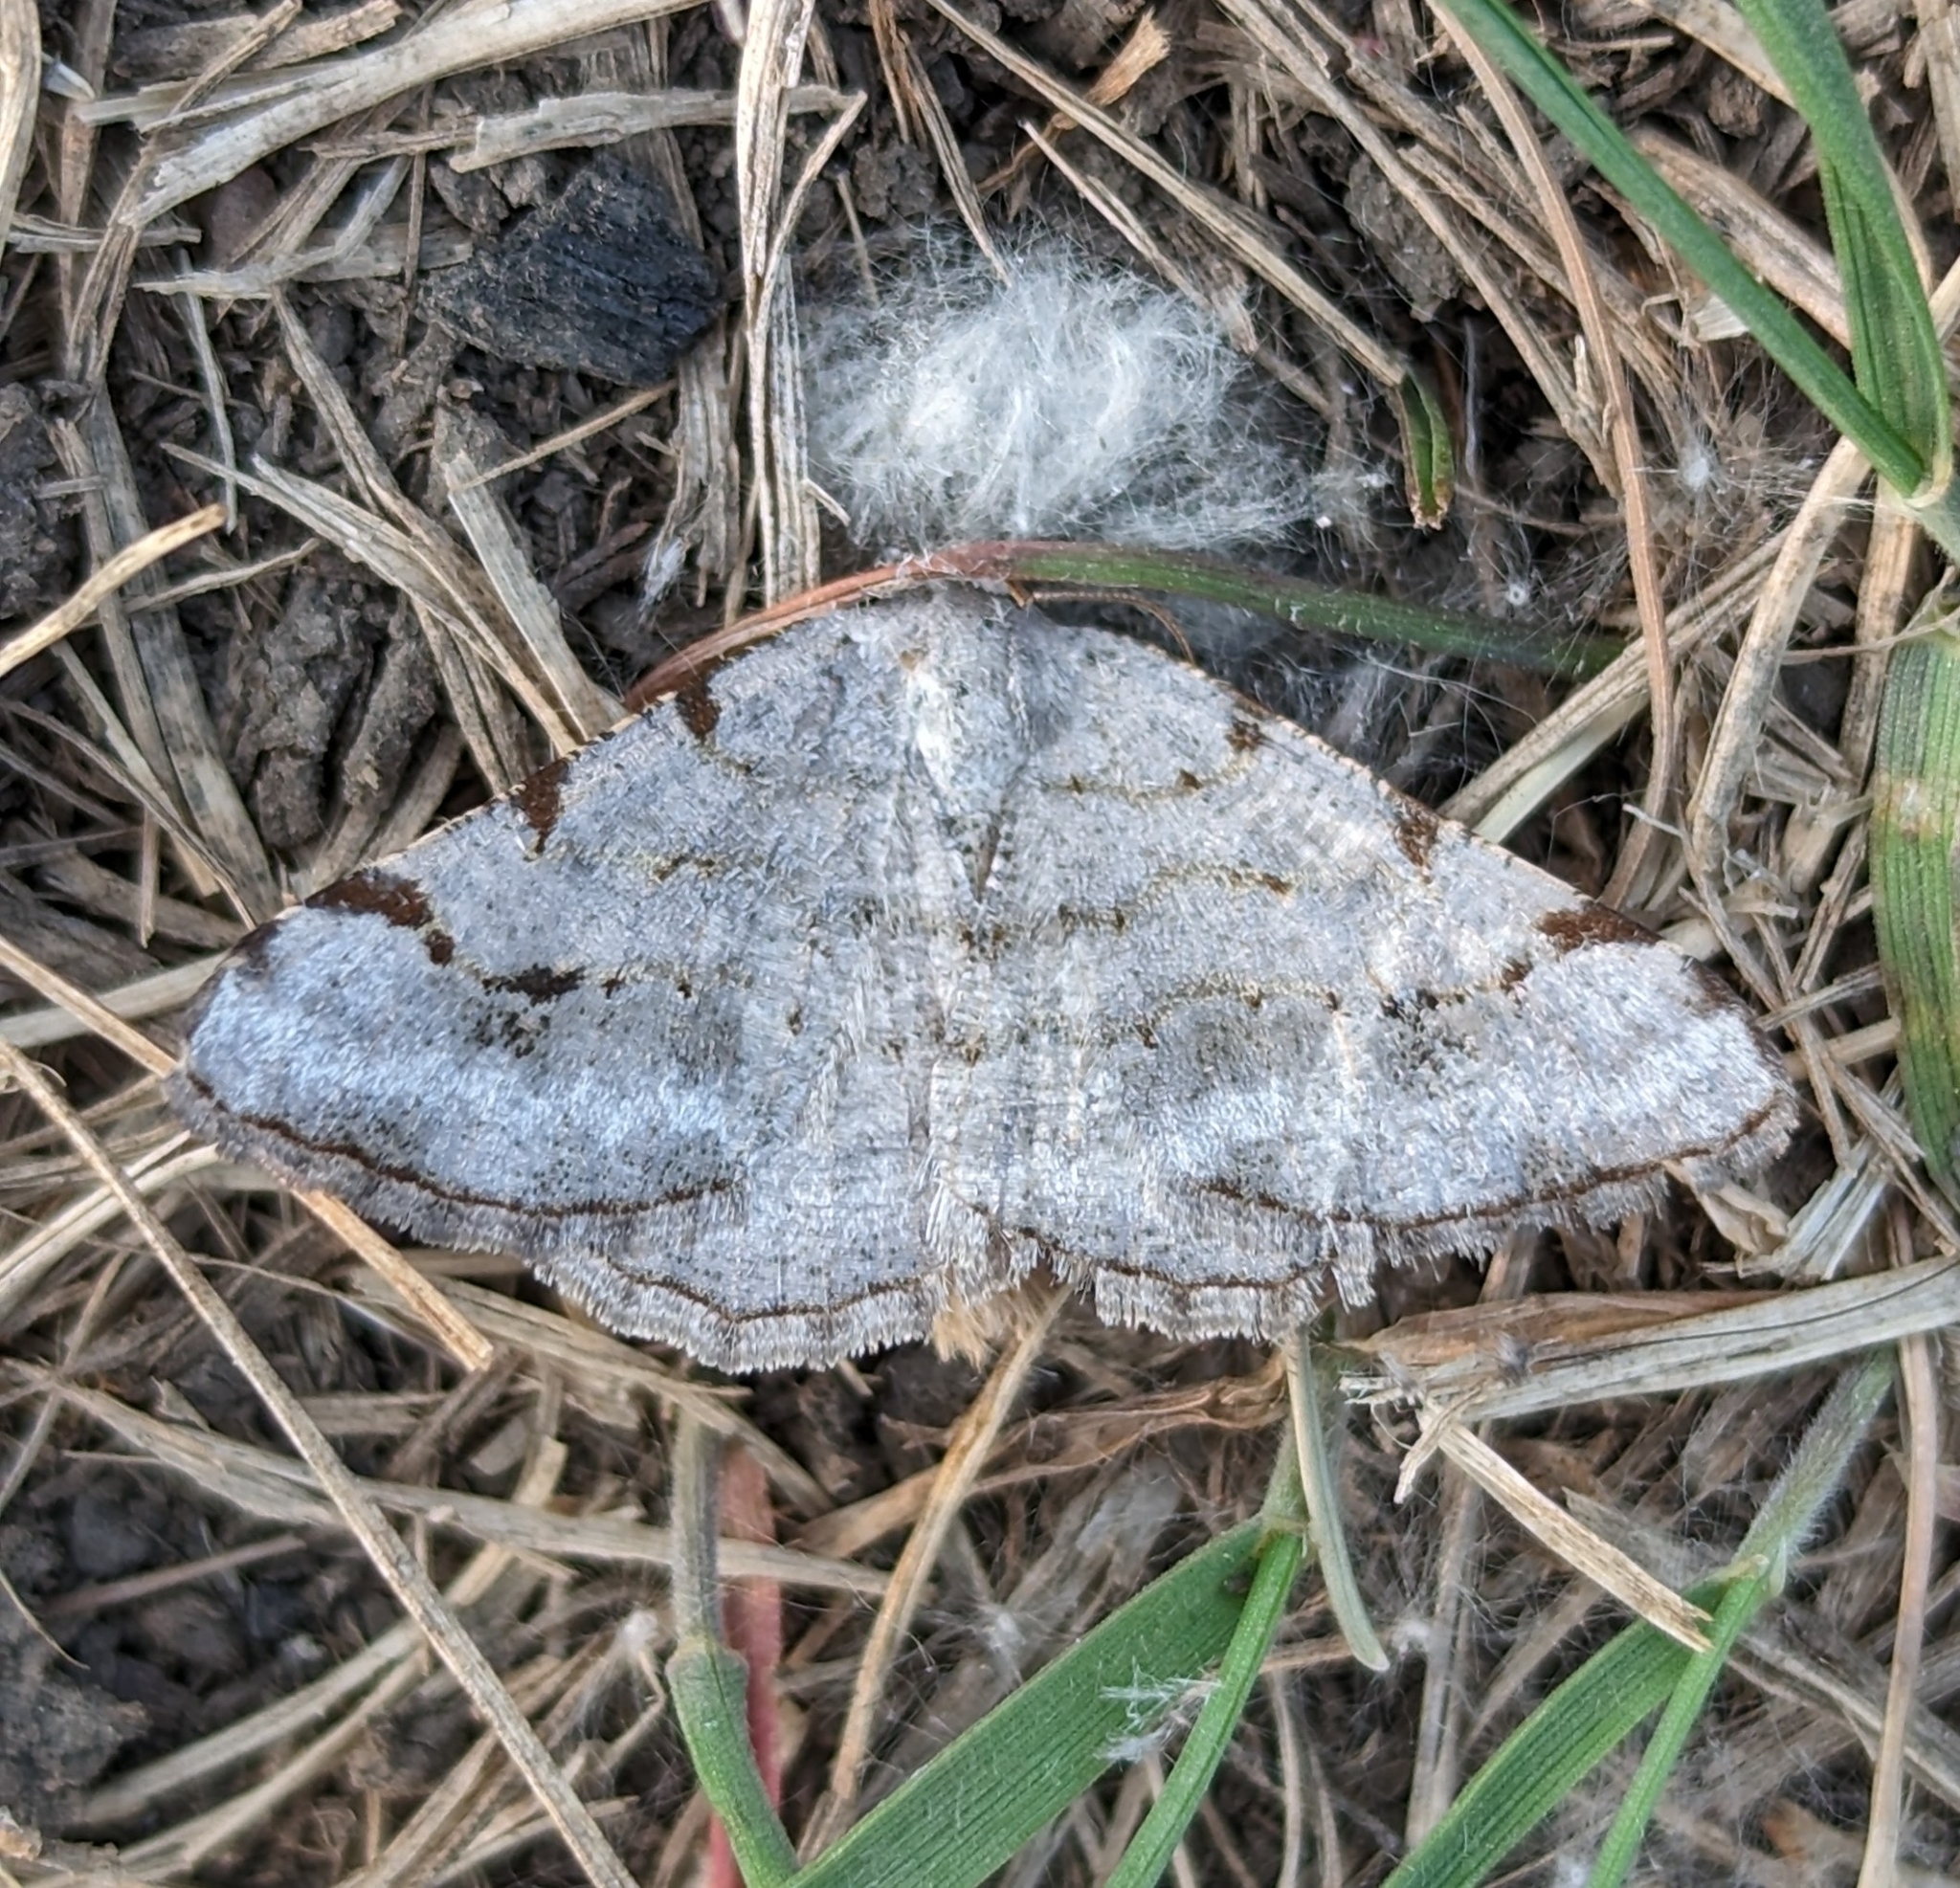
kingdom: Animalia
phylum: Arthropoda
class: Insecta
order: Lepidoptera
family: Geometridae
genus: Digrammia
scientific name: Digrammia denticulata
